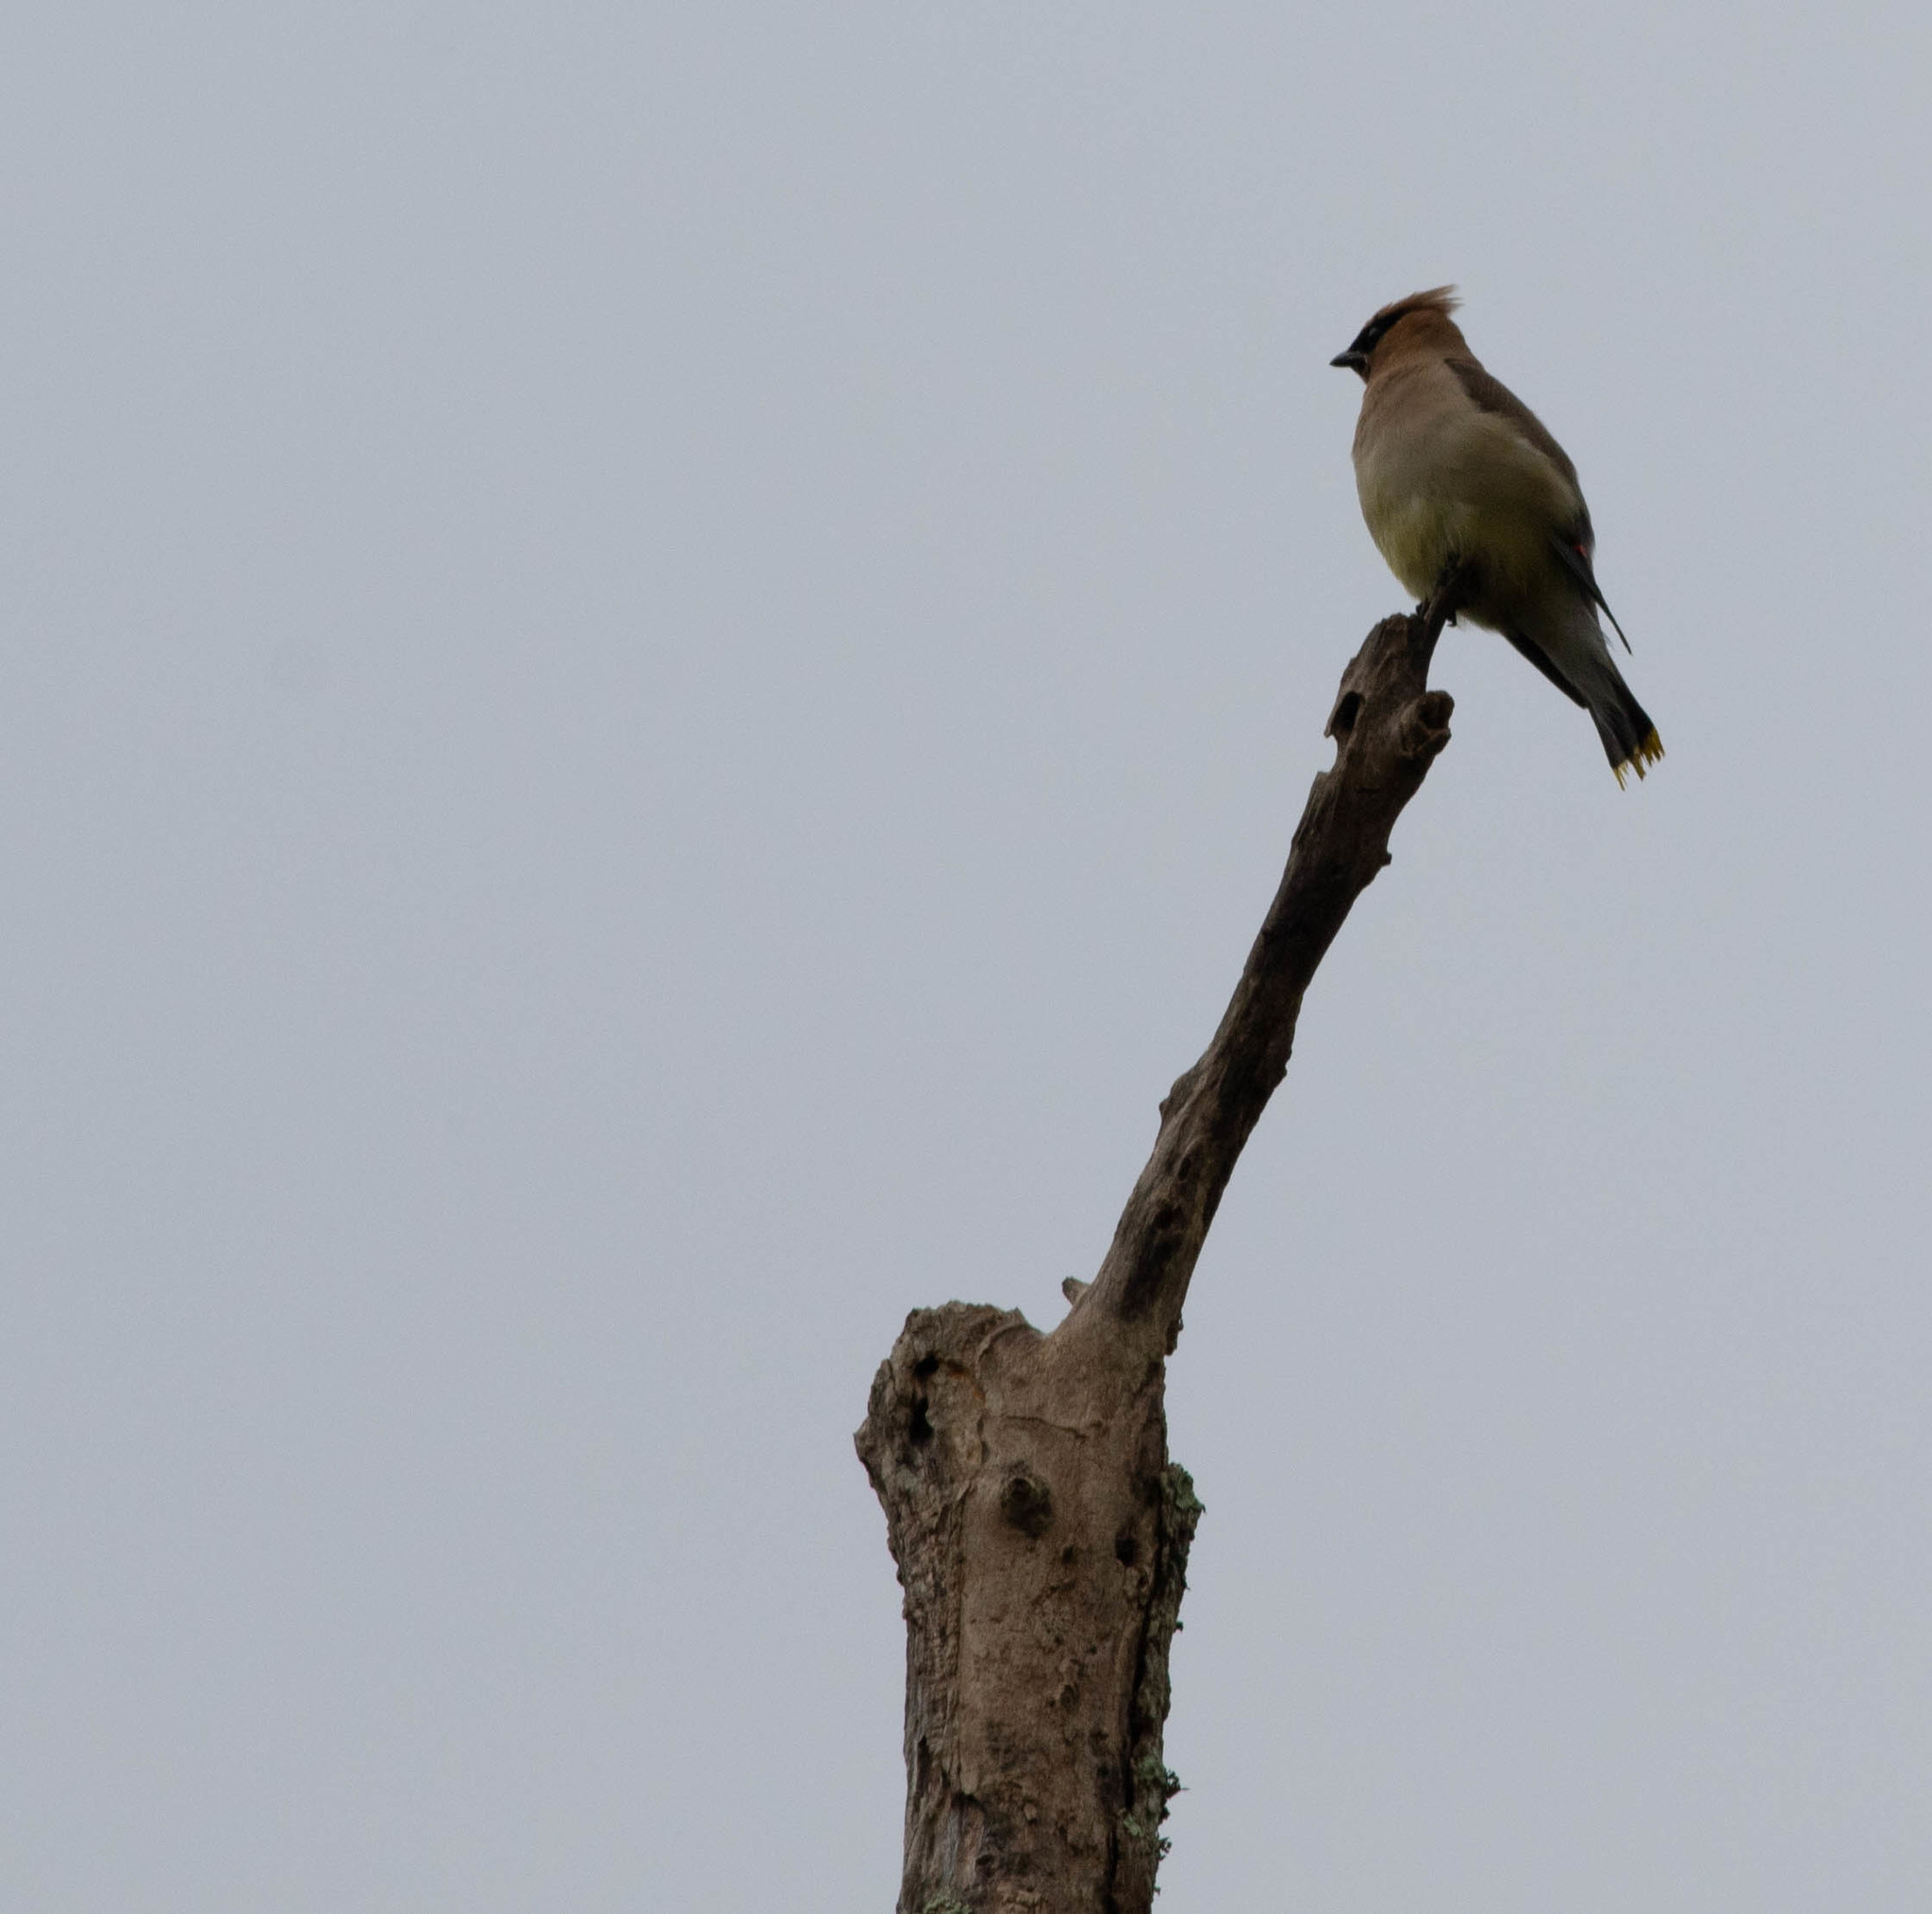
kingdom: Animalia
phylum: Chordata
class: Aves
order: Passeriformes
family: Bombycillidae
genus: Bombycilla
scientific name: Bombycilla cedrorum
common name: Cedar waxwing
